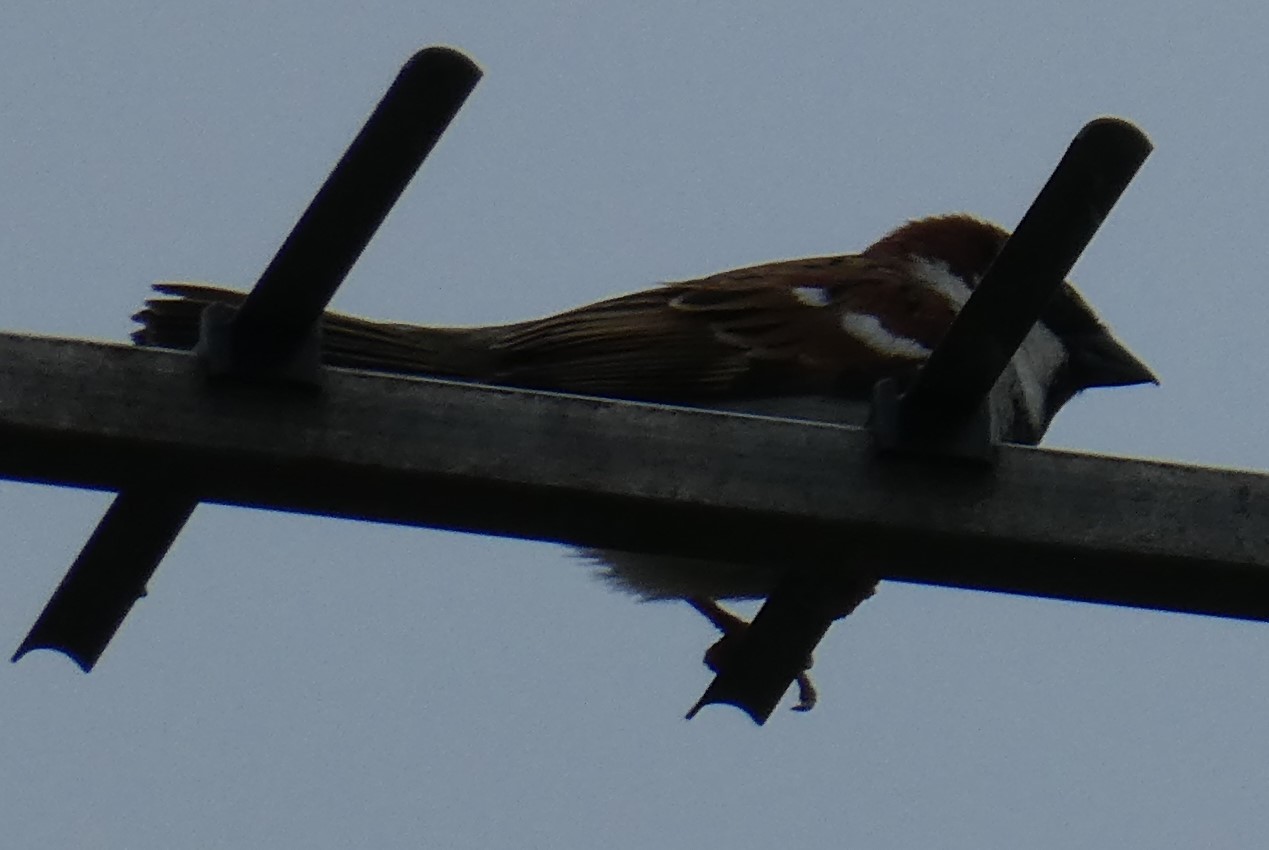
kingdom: Animalia
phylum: Chordata
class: Aves
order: Passeriformes
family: Passeridae
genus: Passer
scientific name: Passer domesticus
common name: House sparrow
